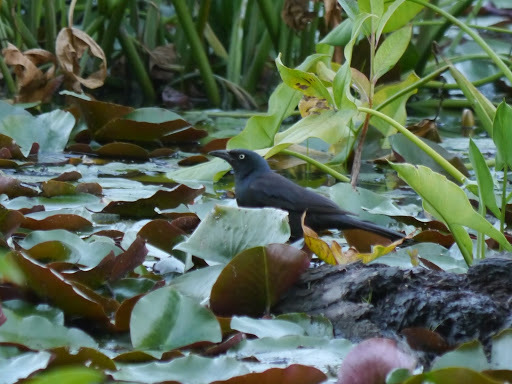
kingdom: Animalia
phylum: Chordata
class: Aves
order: Passeriformes
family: Icteridae
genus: Quiscalus
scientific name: Quiscalus quiscula
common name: Common grackle
